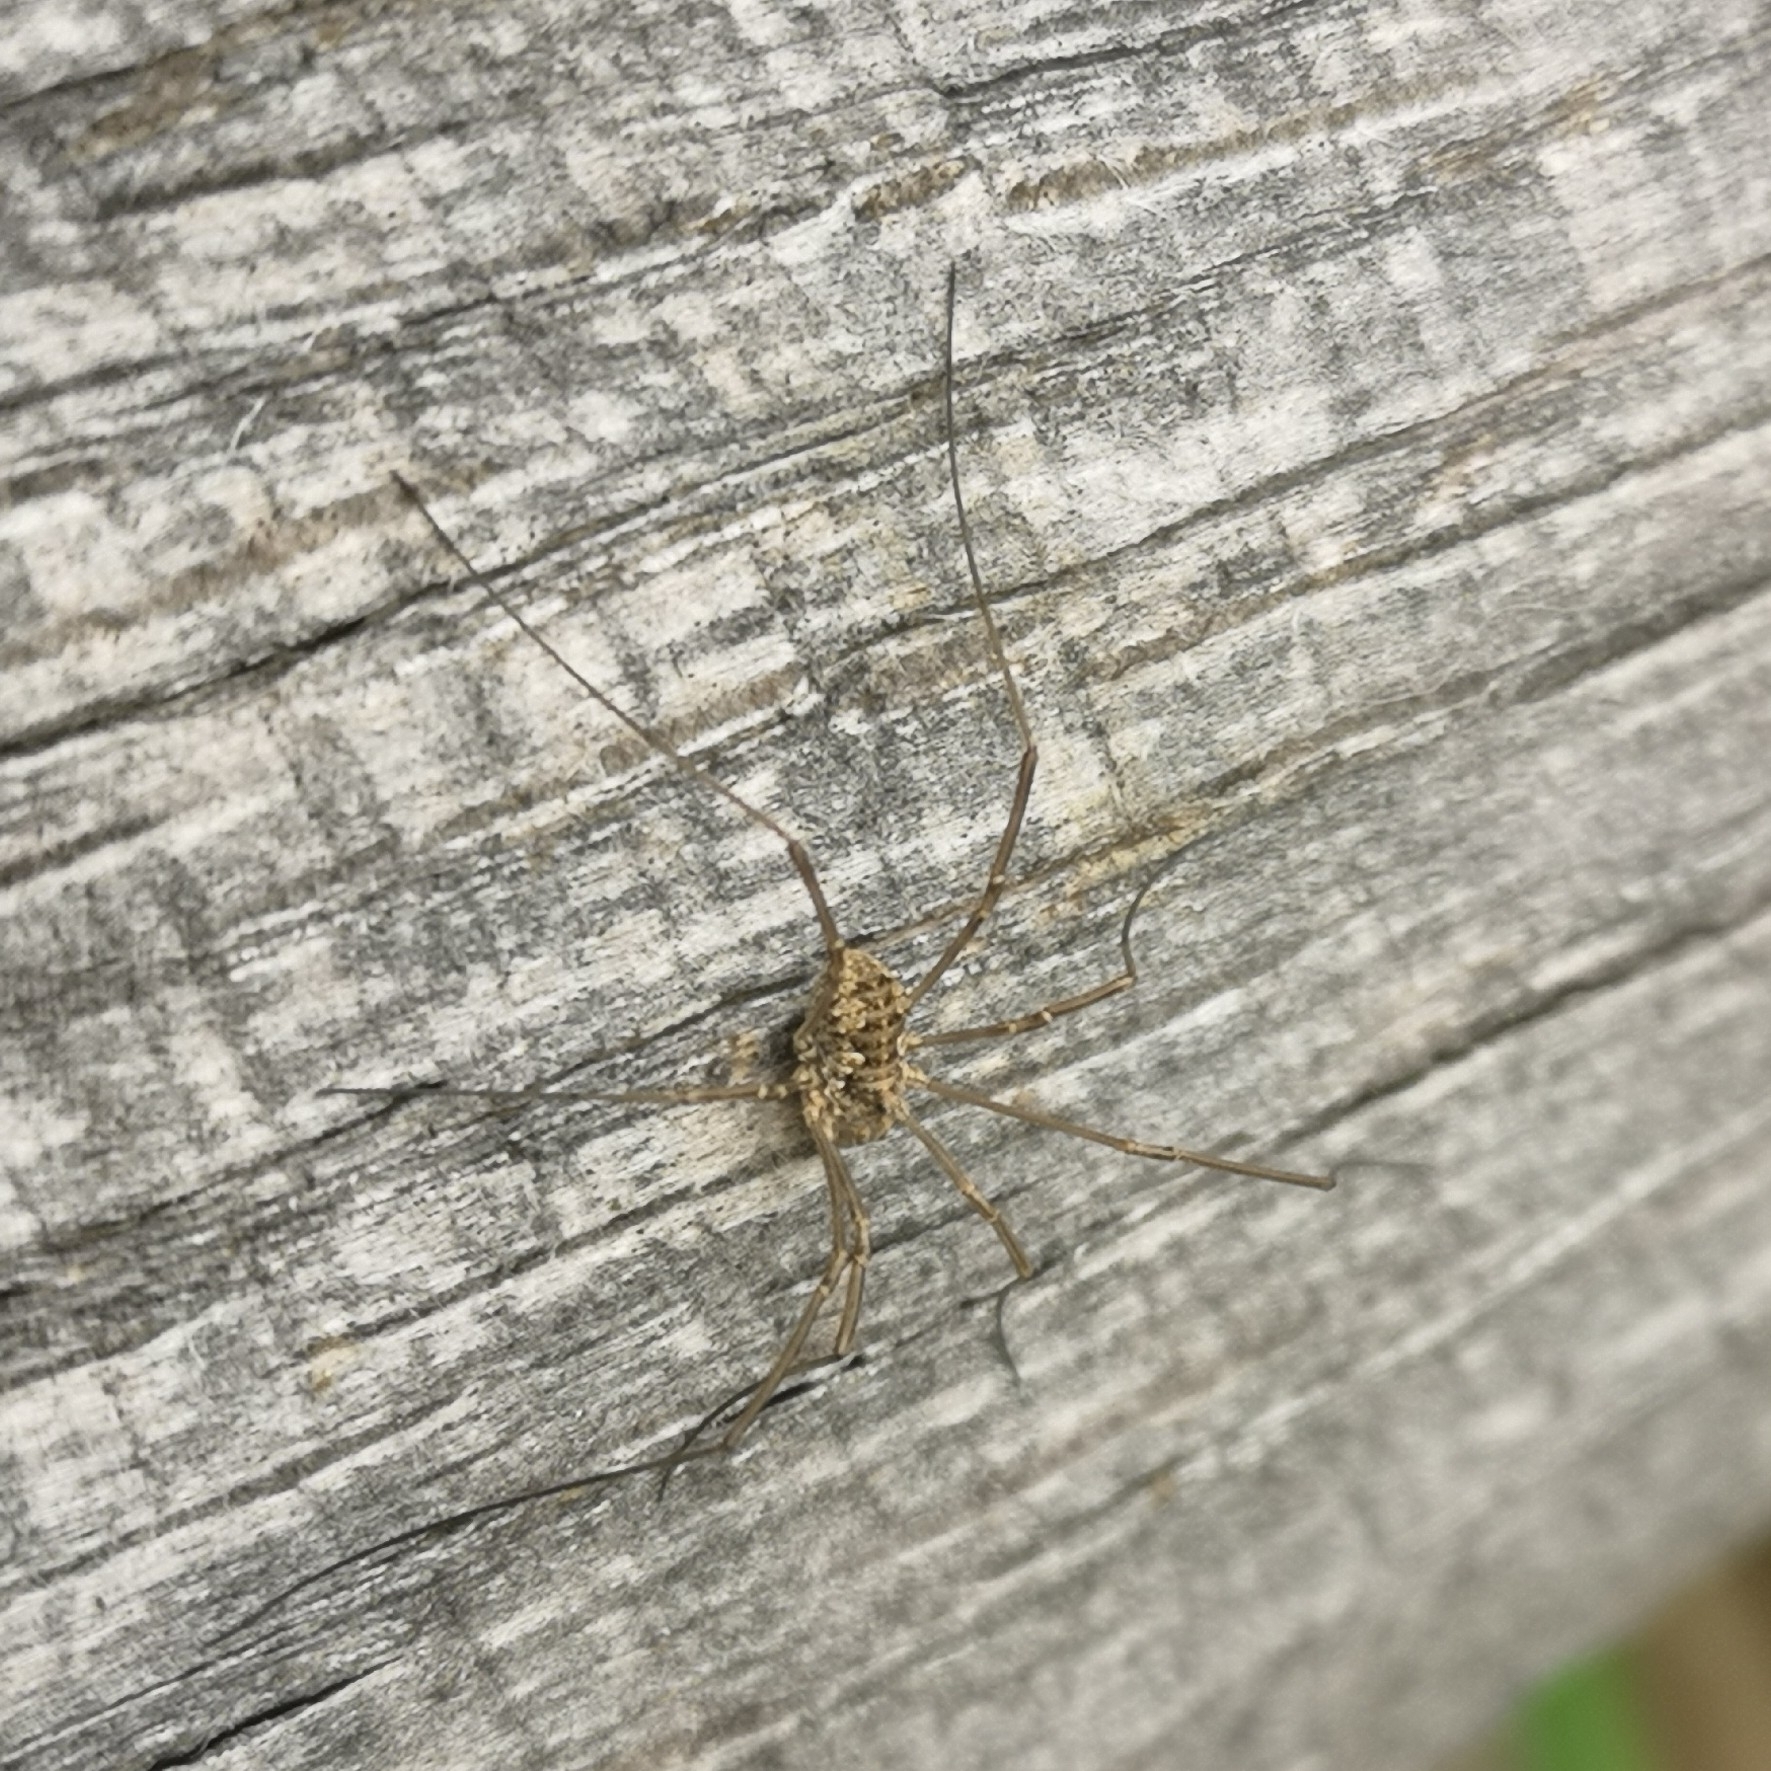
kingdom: Animalia
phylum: Arthropoda
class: Arachnida
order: Opiliones
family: Phalangiidae
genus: Phalangium
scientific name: Phalangium opilio
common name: Daddy longleg
